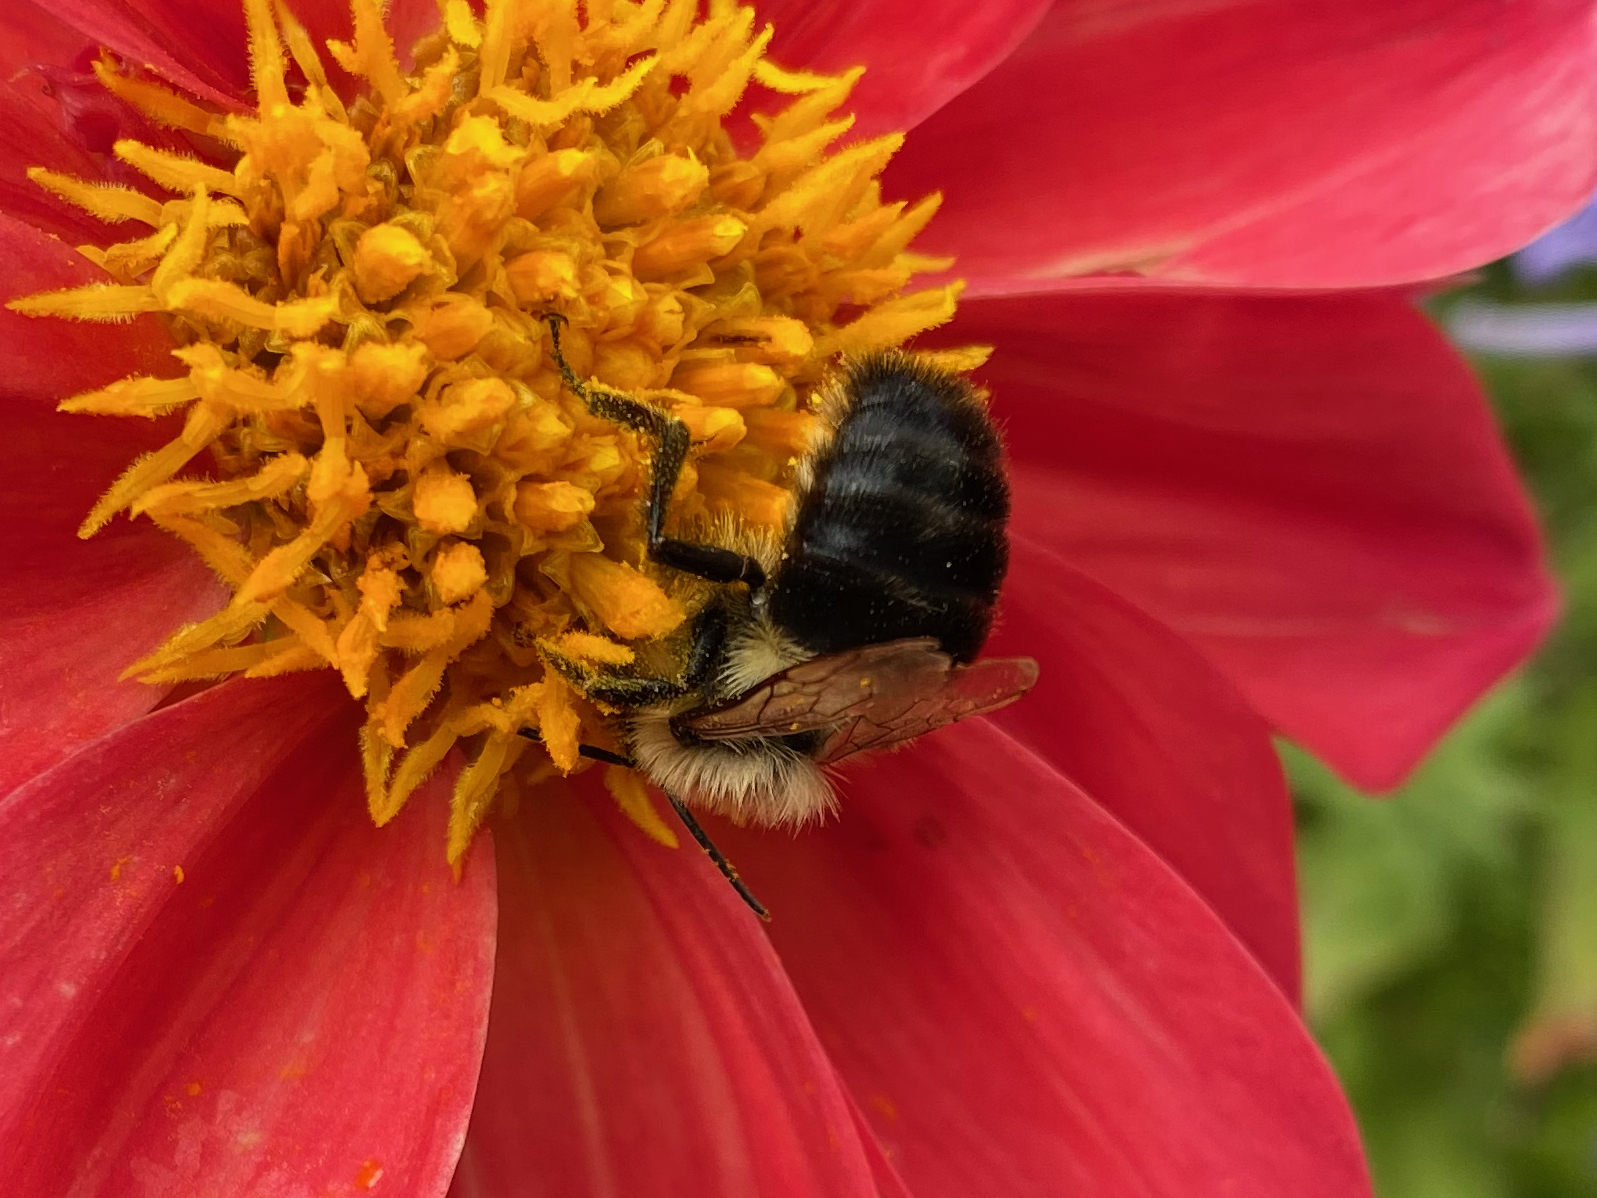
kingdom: Animalia
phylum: Arthropoda
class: Insecta
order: Hymenoptera
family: Apidae
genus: Bombus
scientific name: Bombus impatiens
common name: Common eastern bumble bee
